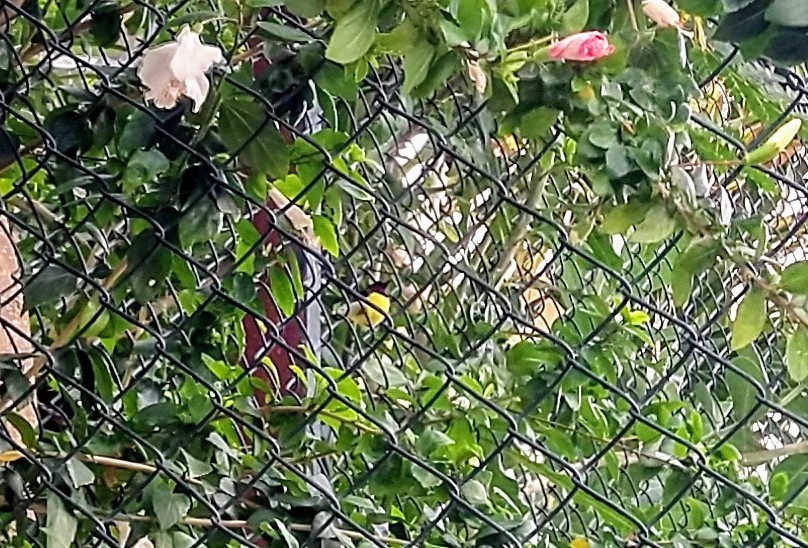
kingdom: Animalia
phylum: Chordata
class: Aves
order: Passeriformes
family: Nectariniidae
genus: Leptocoma
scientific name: Leptocoma zeylonica
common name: Purple-rumped sunbird
